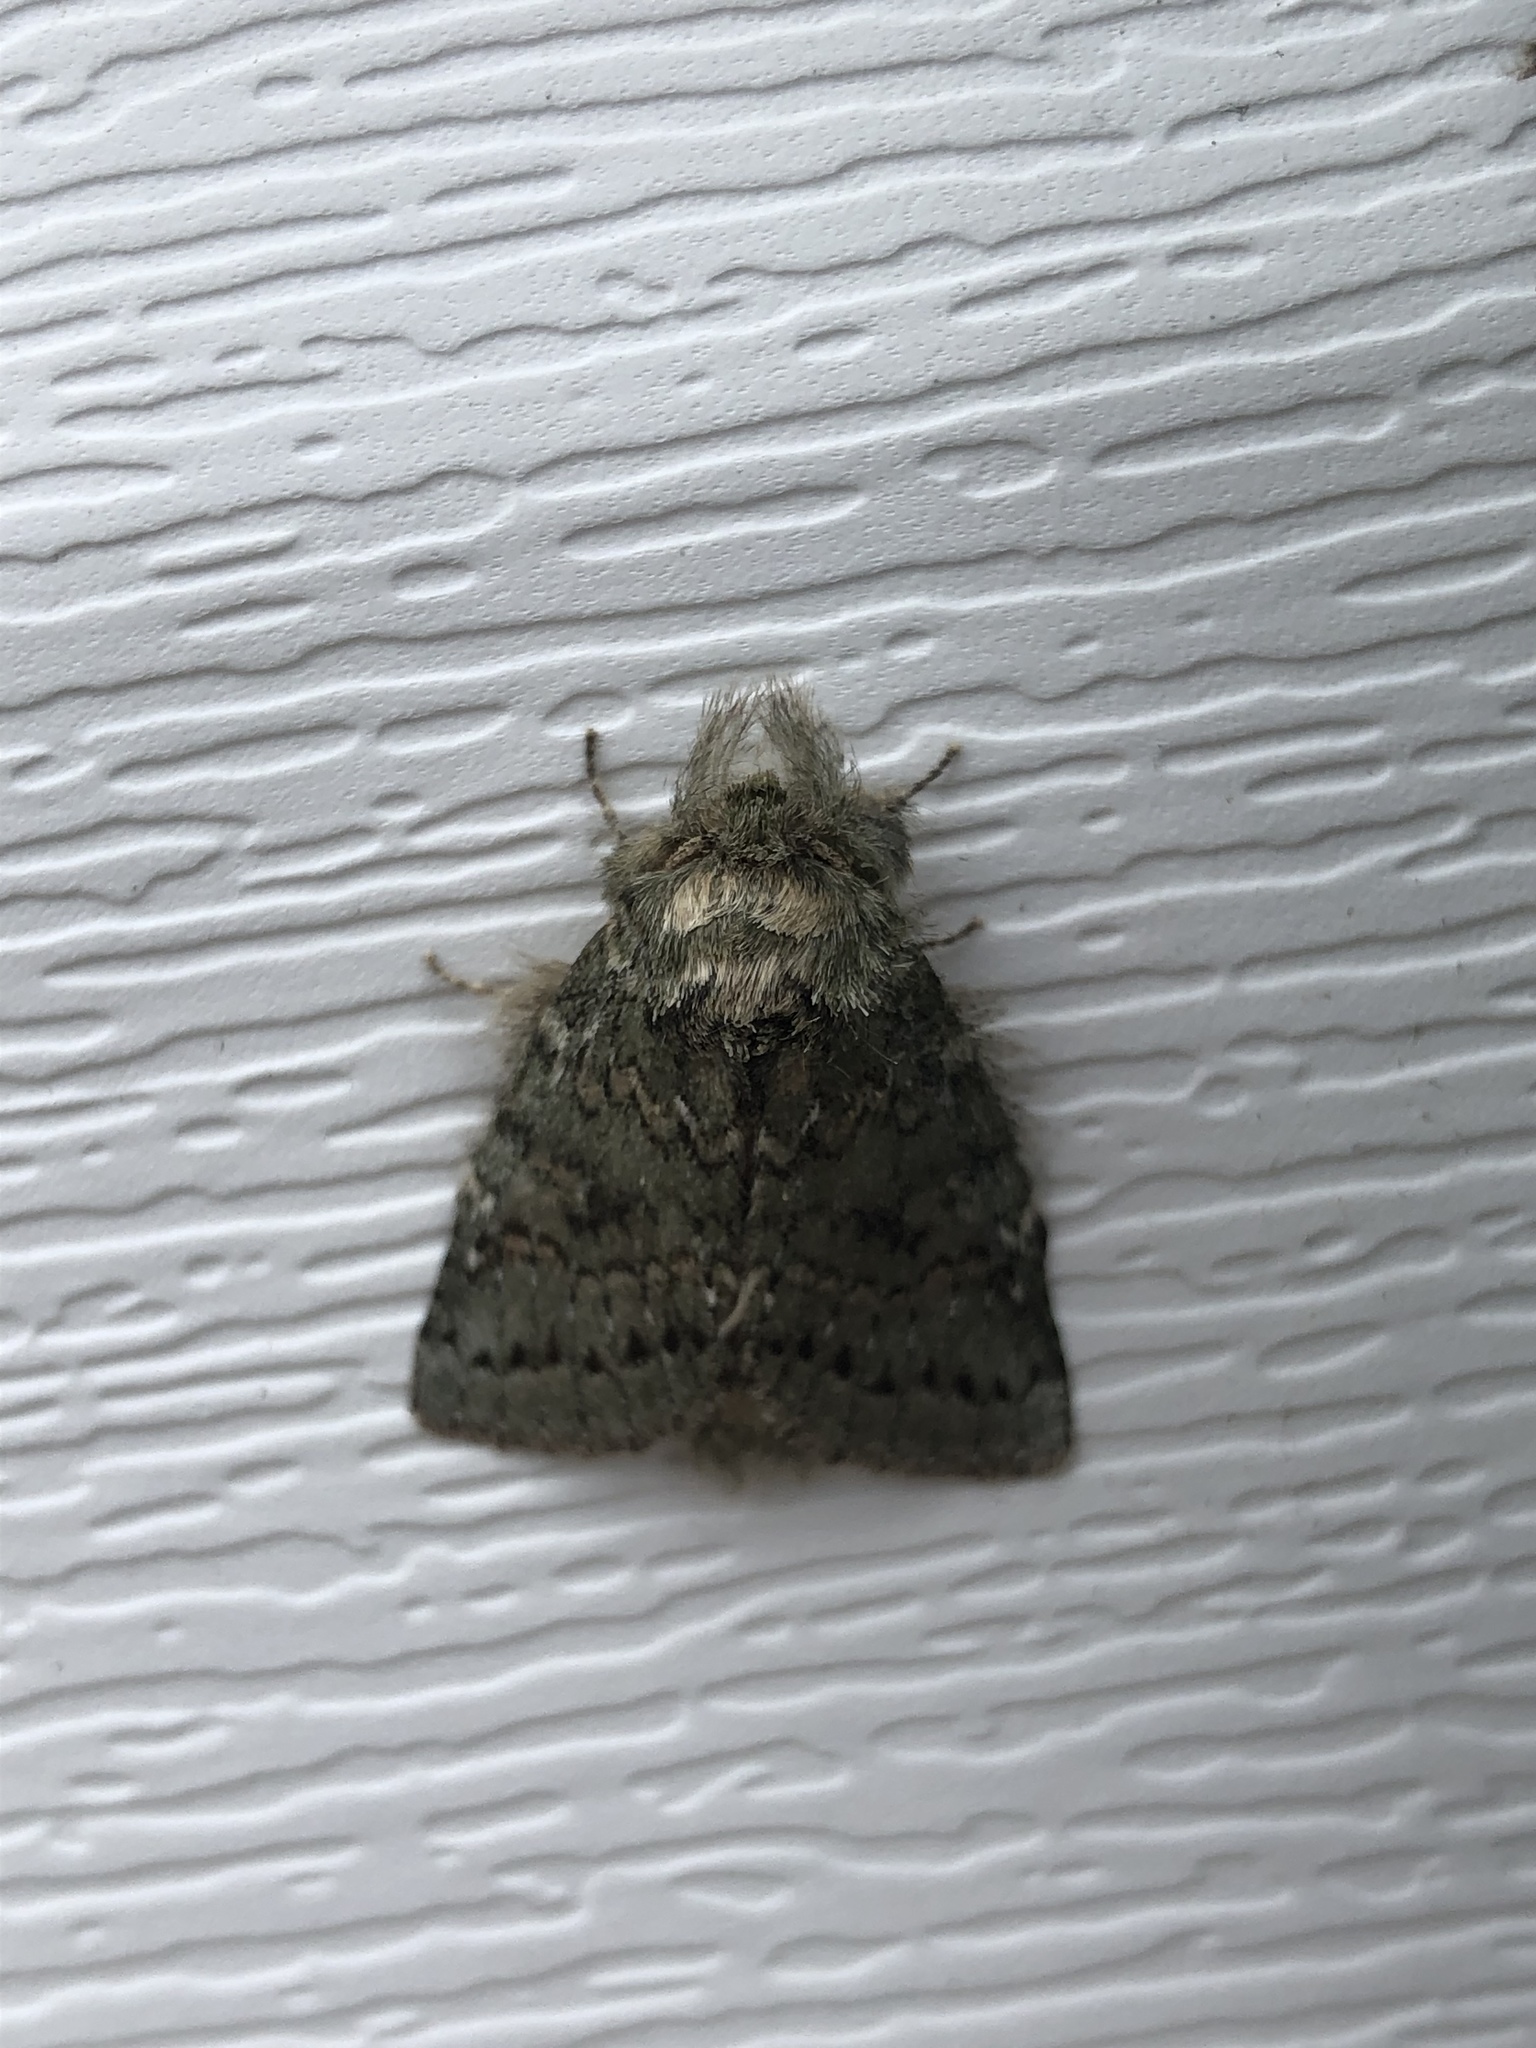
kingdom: Animalia
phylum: Arthropoda
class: Insecta
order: Lepidoptera
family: Notodontidae
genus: Disphragis
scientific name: Disphragis Cecrita guttivitta
